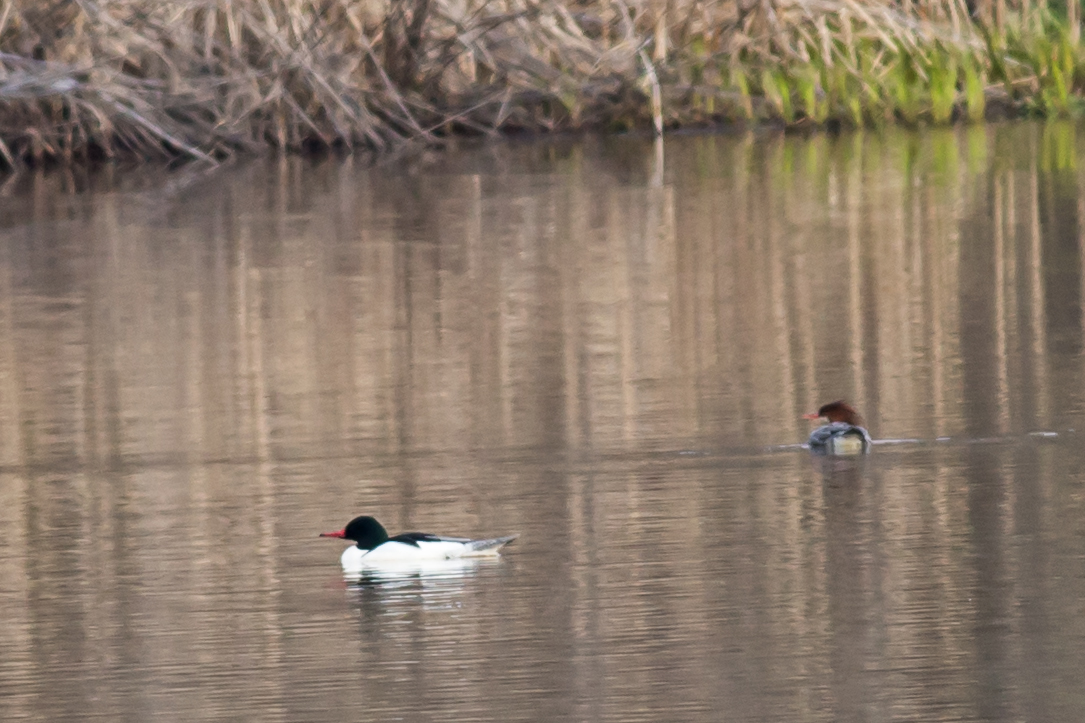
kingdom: Animalia
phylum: Chordata
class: Aves
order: Anseriformes
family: Anatidae
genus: Mergus
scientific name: Mergus merganser
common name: Common merganser
